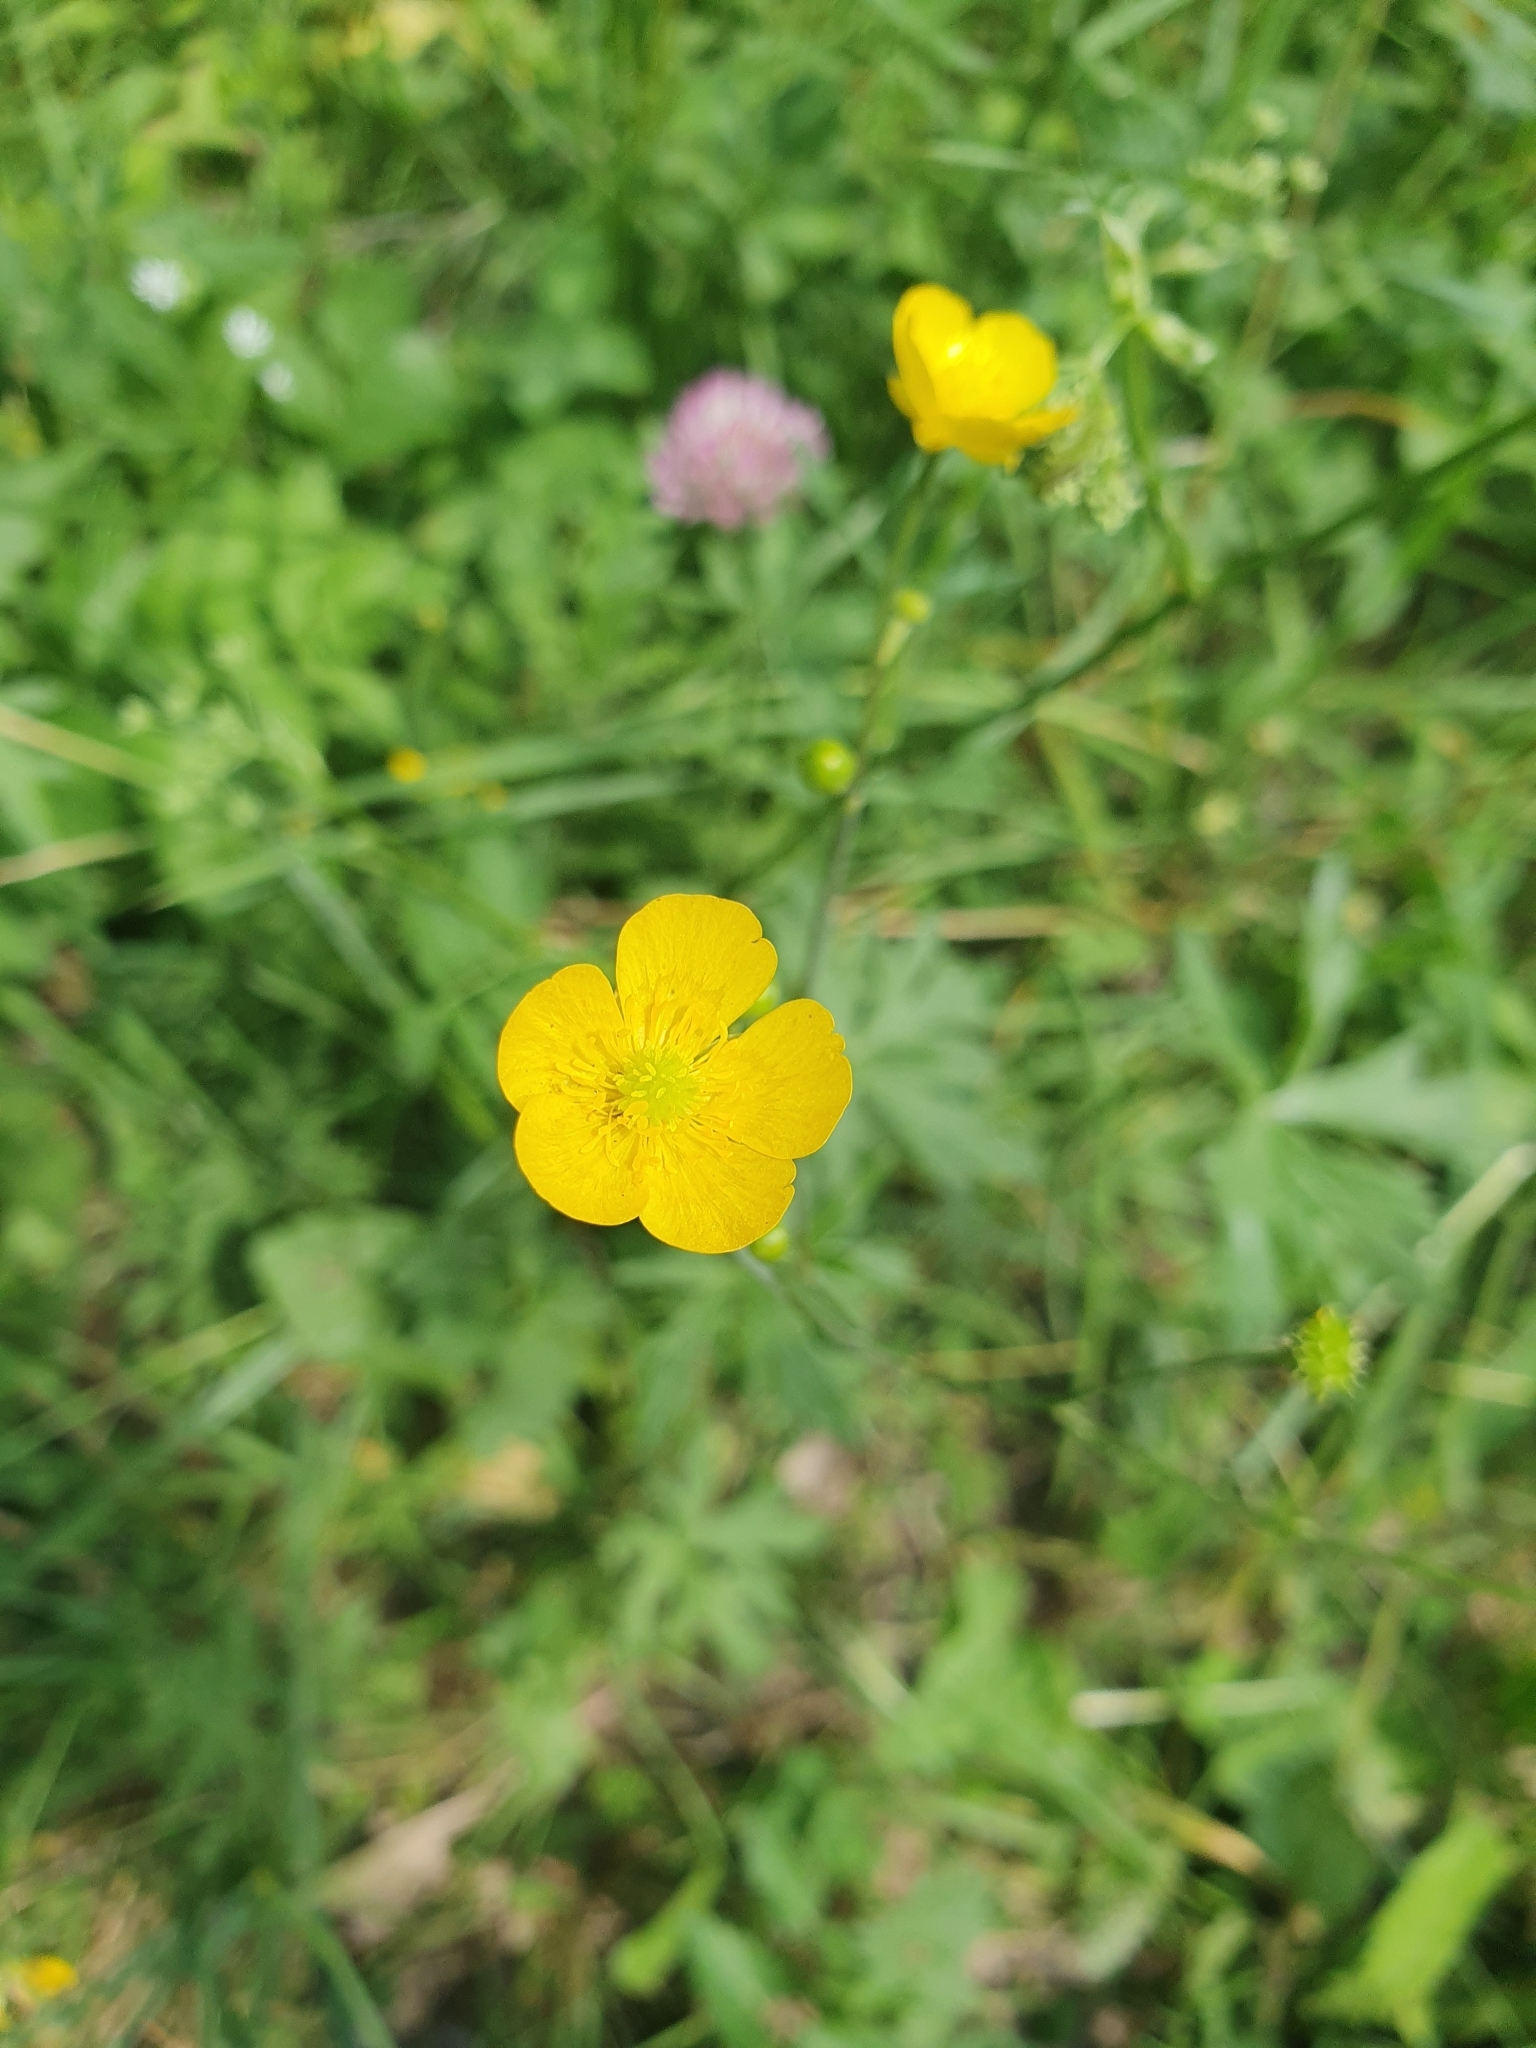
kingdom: Plantae
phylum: Tracheophyta
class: Magnoliopsida
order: Ranunculales
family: Ranunculaceae
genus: Ranunculus
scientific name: Ranunculus acris
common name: Meadow buttercup
